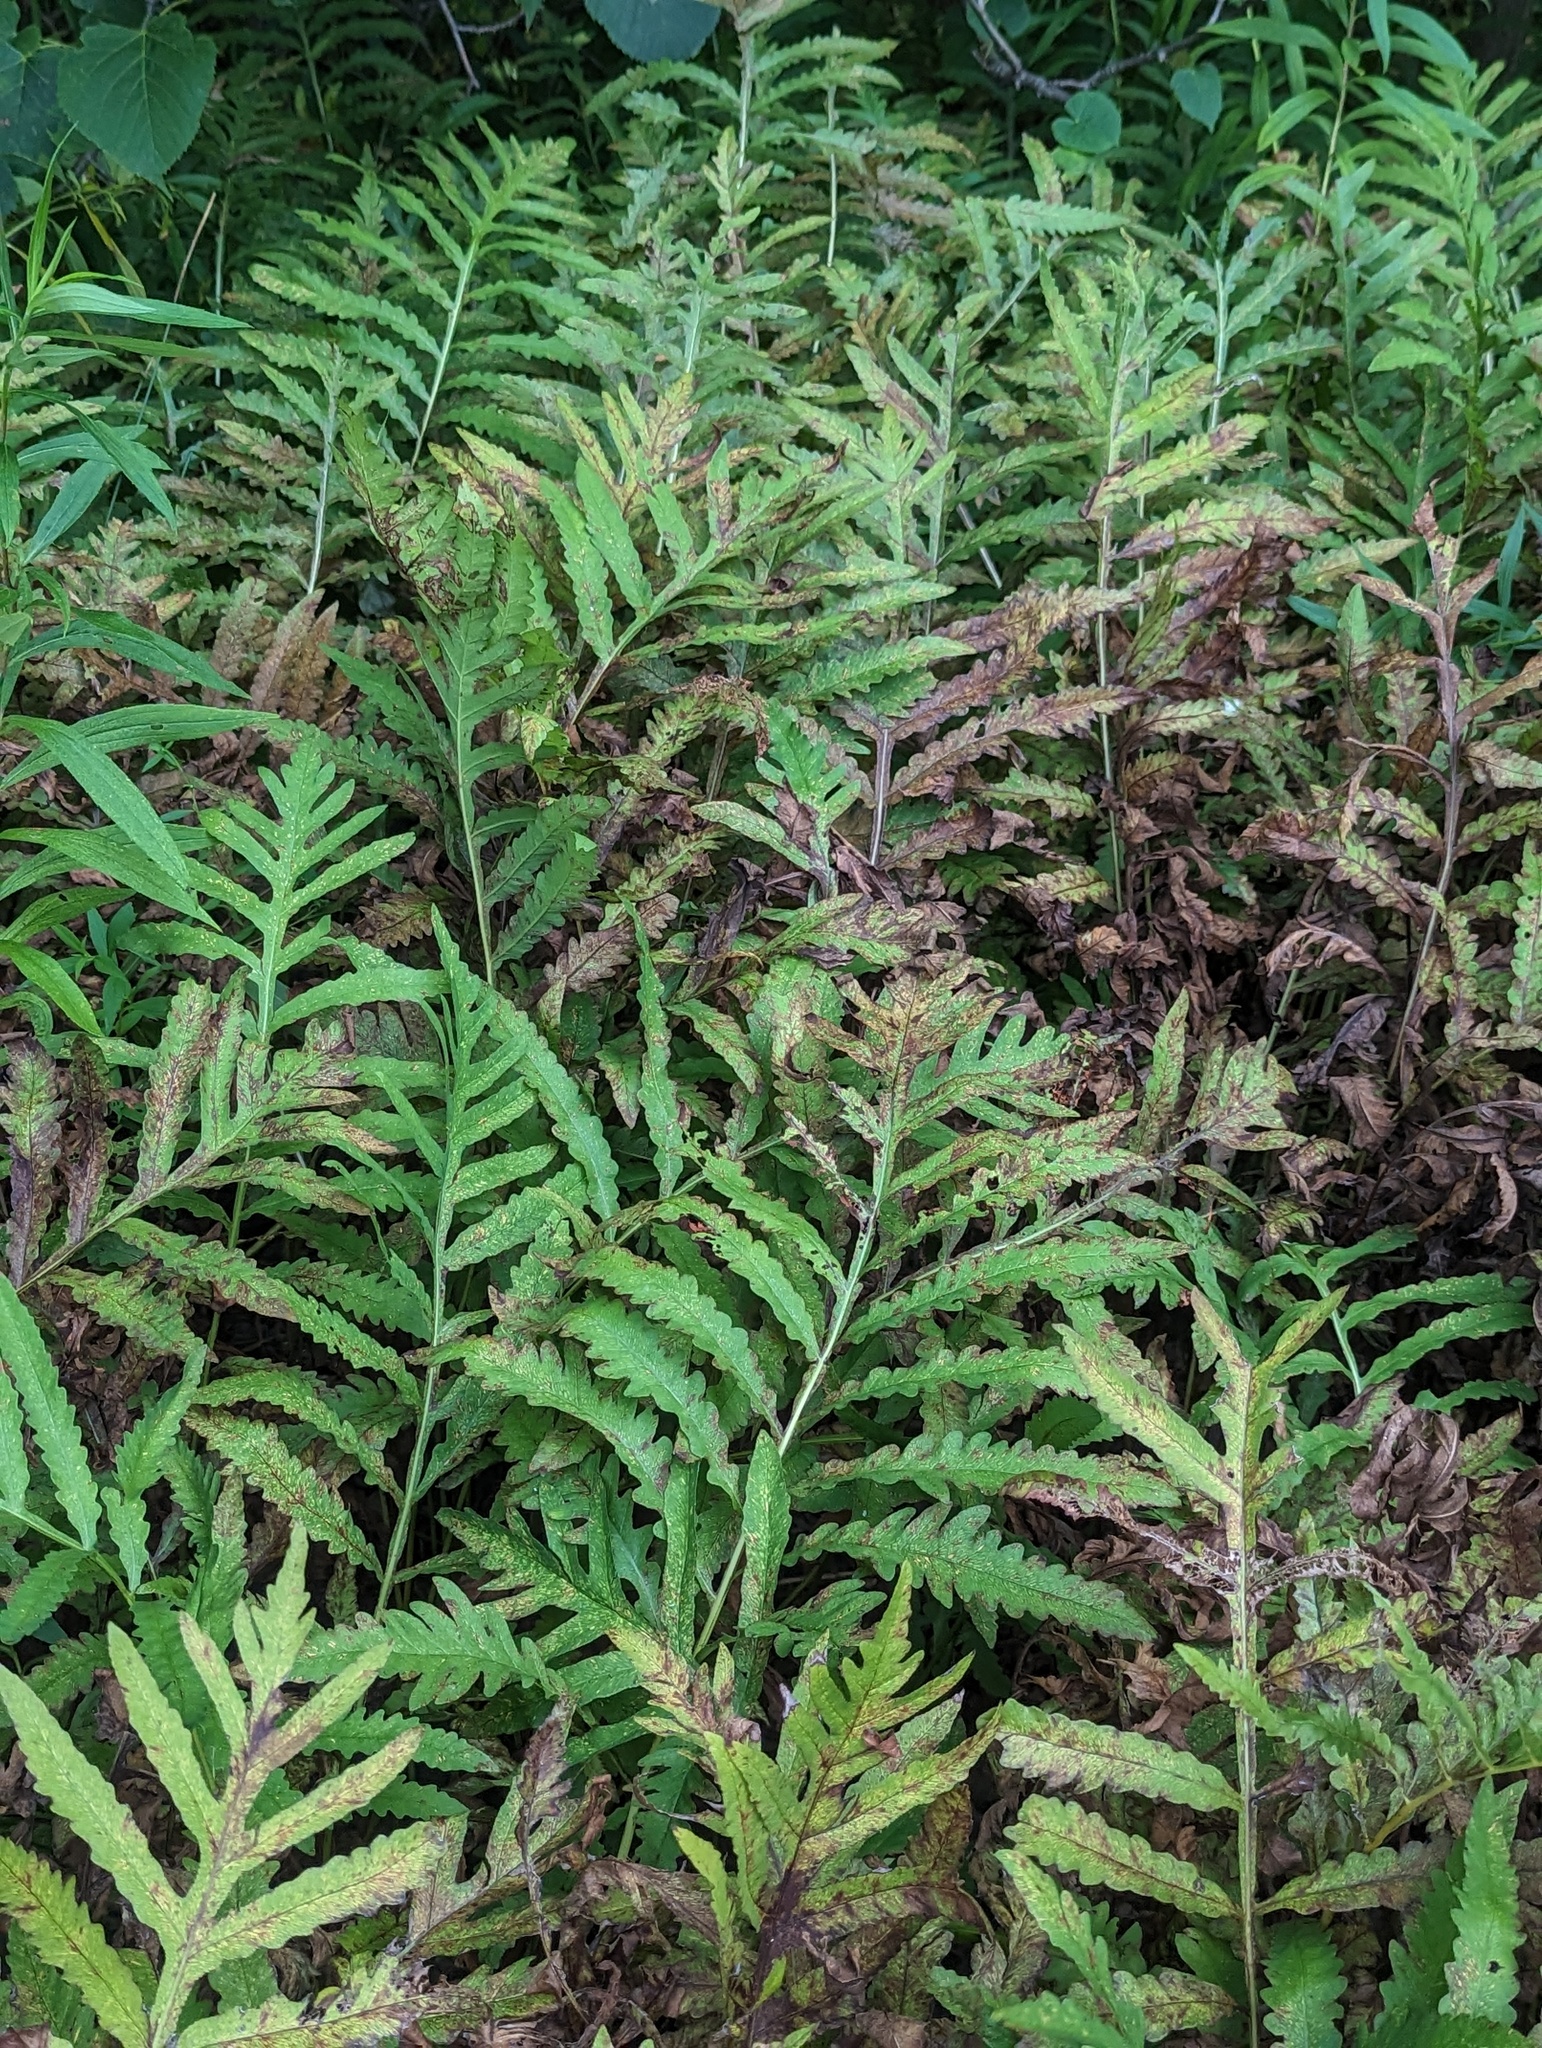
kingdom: Plantae
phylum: Tracheophyta
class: Polypodiopsida
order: Polypodiales
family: Onocleaceae
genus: Onoclea
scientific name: Onoclea sensibilis
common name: Sensitive fern
